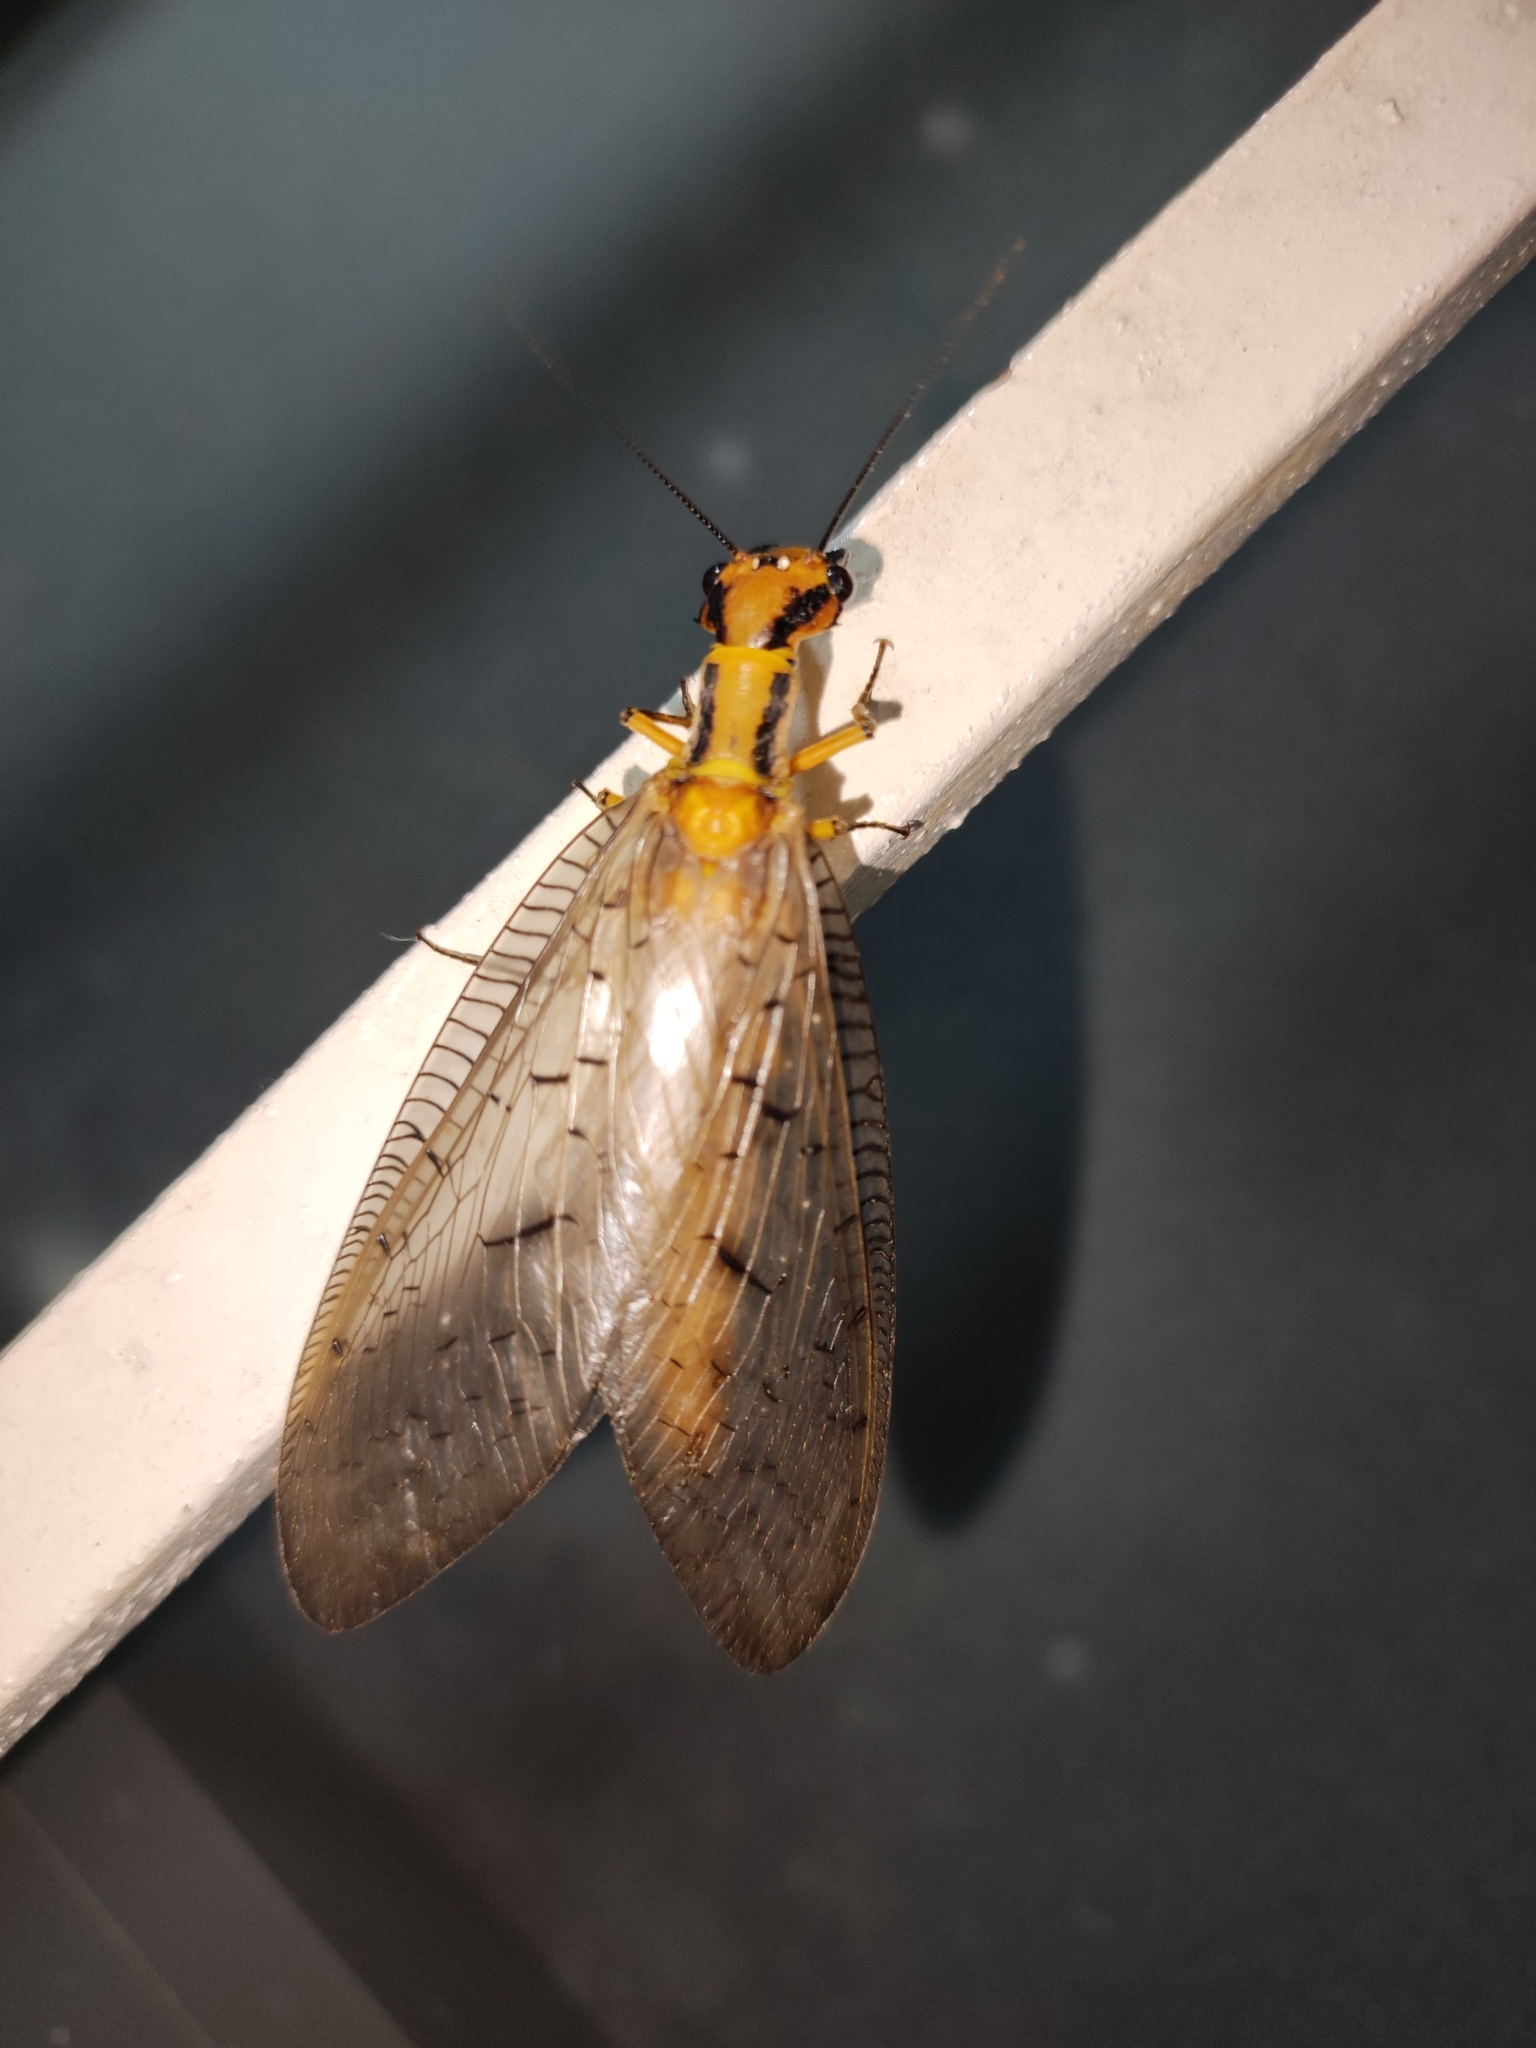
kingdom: Animalia
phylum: Arthropoda
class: Insecta
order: Megaloptera
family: Corydalidae
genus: Neoneuromus
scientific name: Neoneuromus ignobilis
